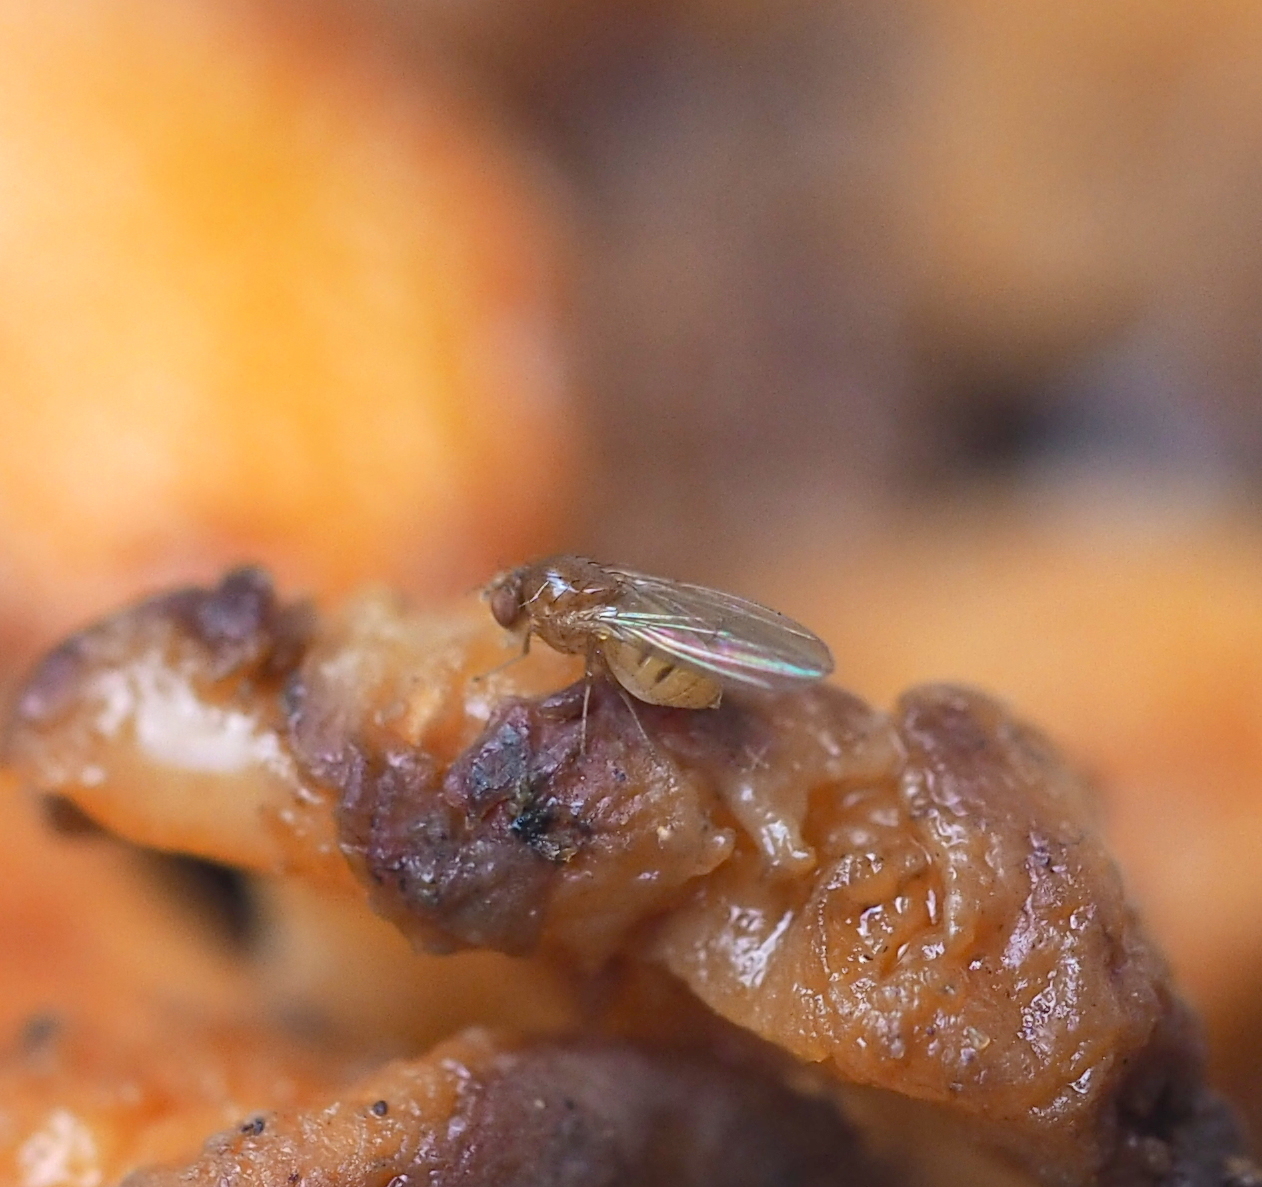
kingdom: Animalia
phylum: Arthropoda
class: Insecta
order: Diptera
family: Drosophilidae
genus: Drosophila
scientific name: Drosophila testacea
